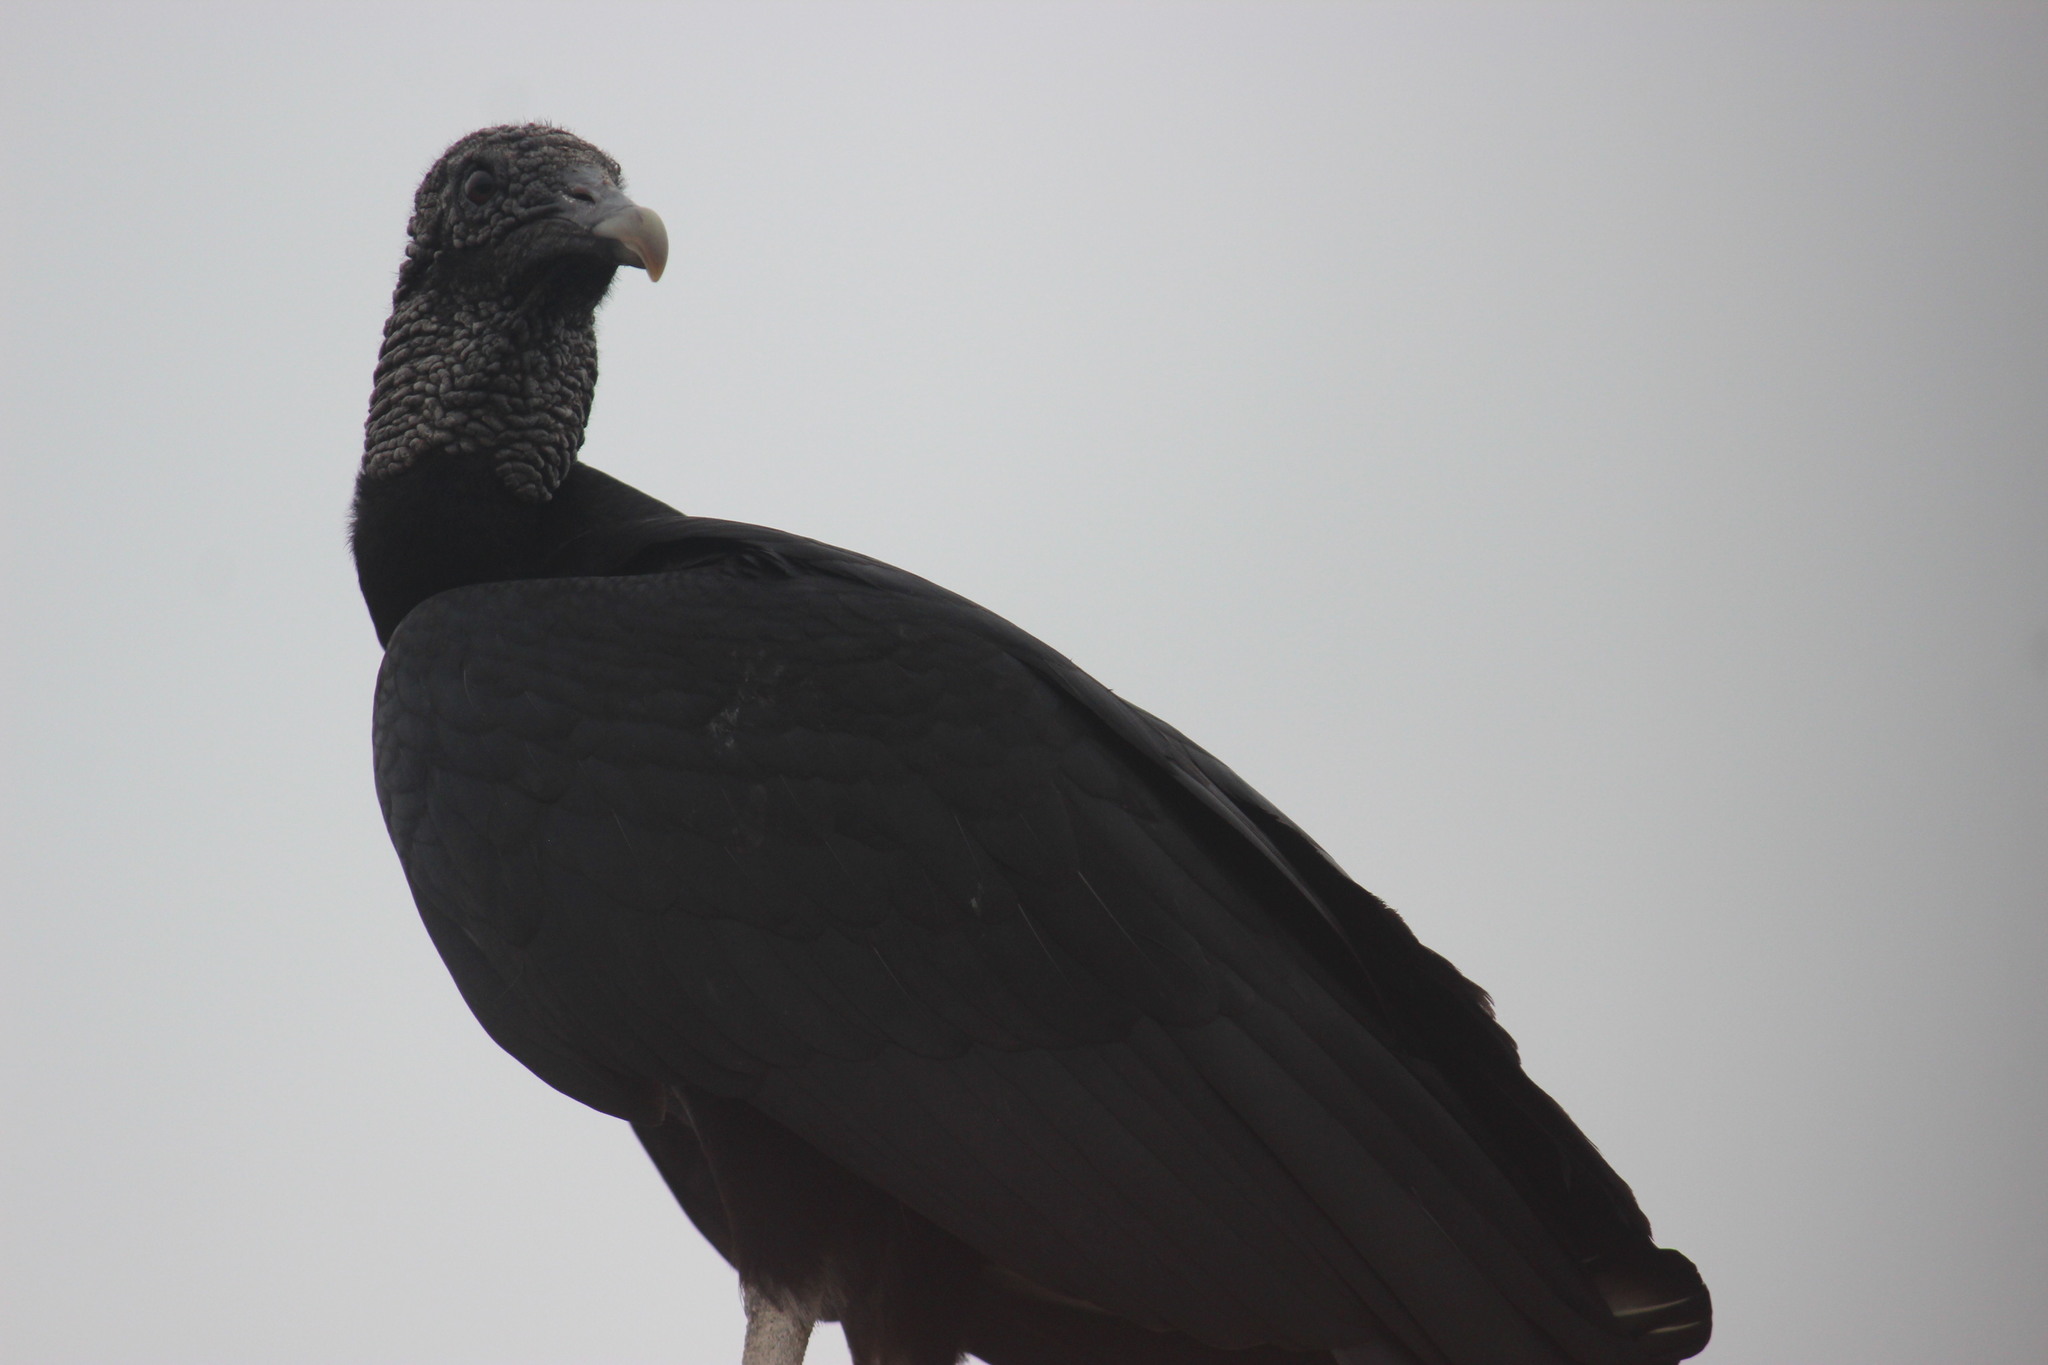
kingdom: Animalia
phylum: Chordata
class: Aves
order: Accipitriformes
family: Cathartidae
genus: Coragyps
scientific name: Coragyps atratus
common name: Black vulture
